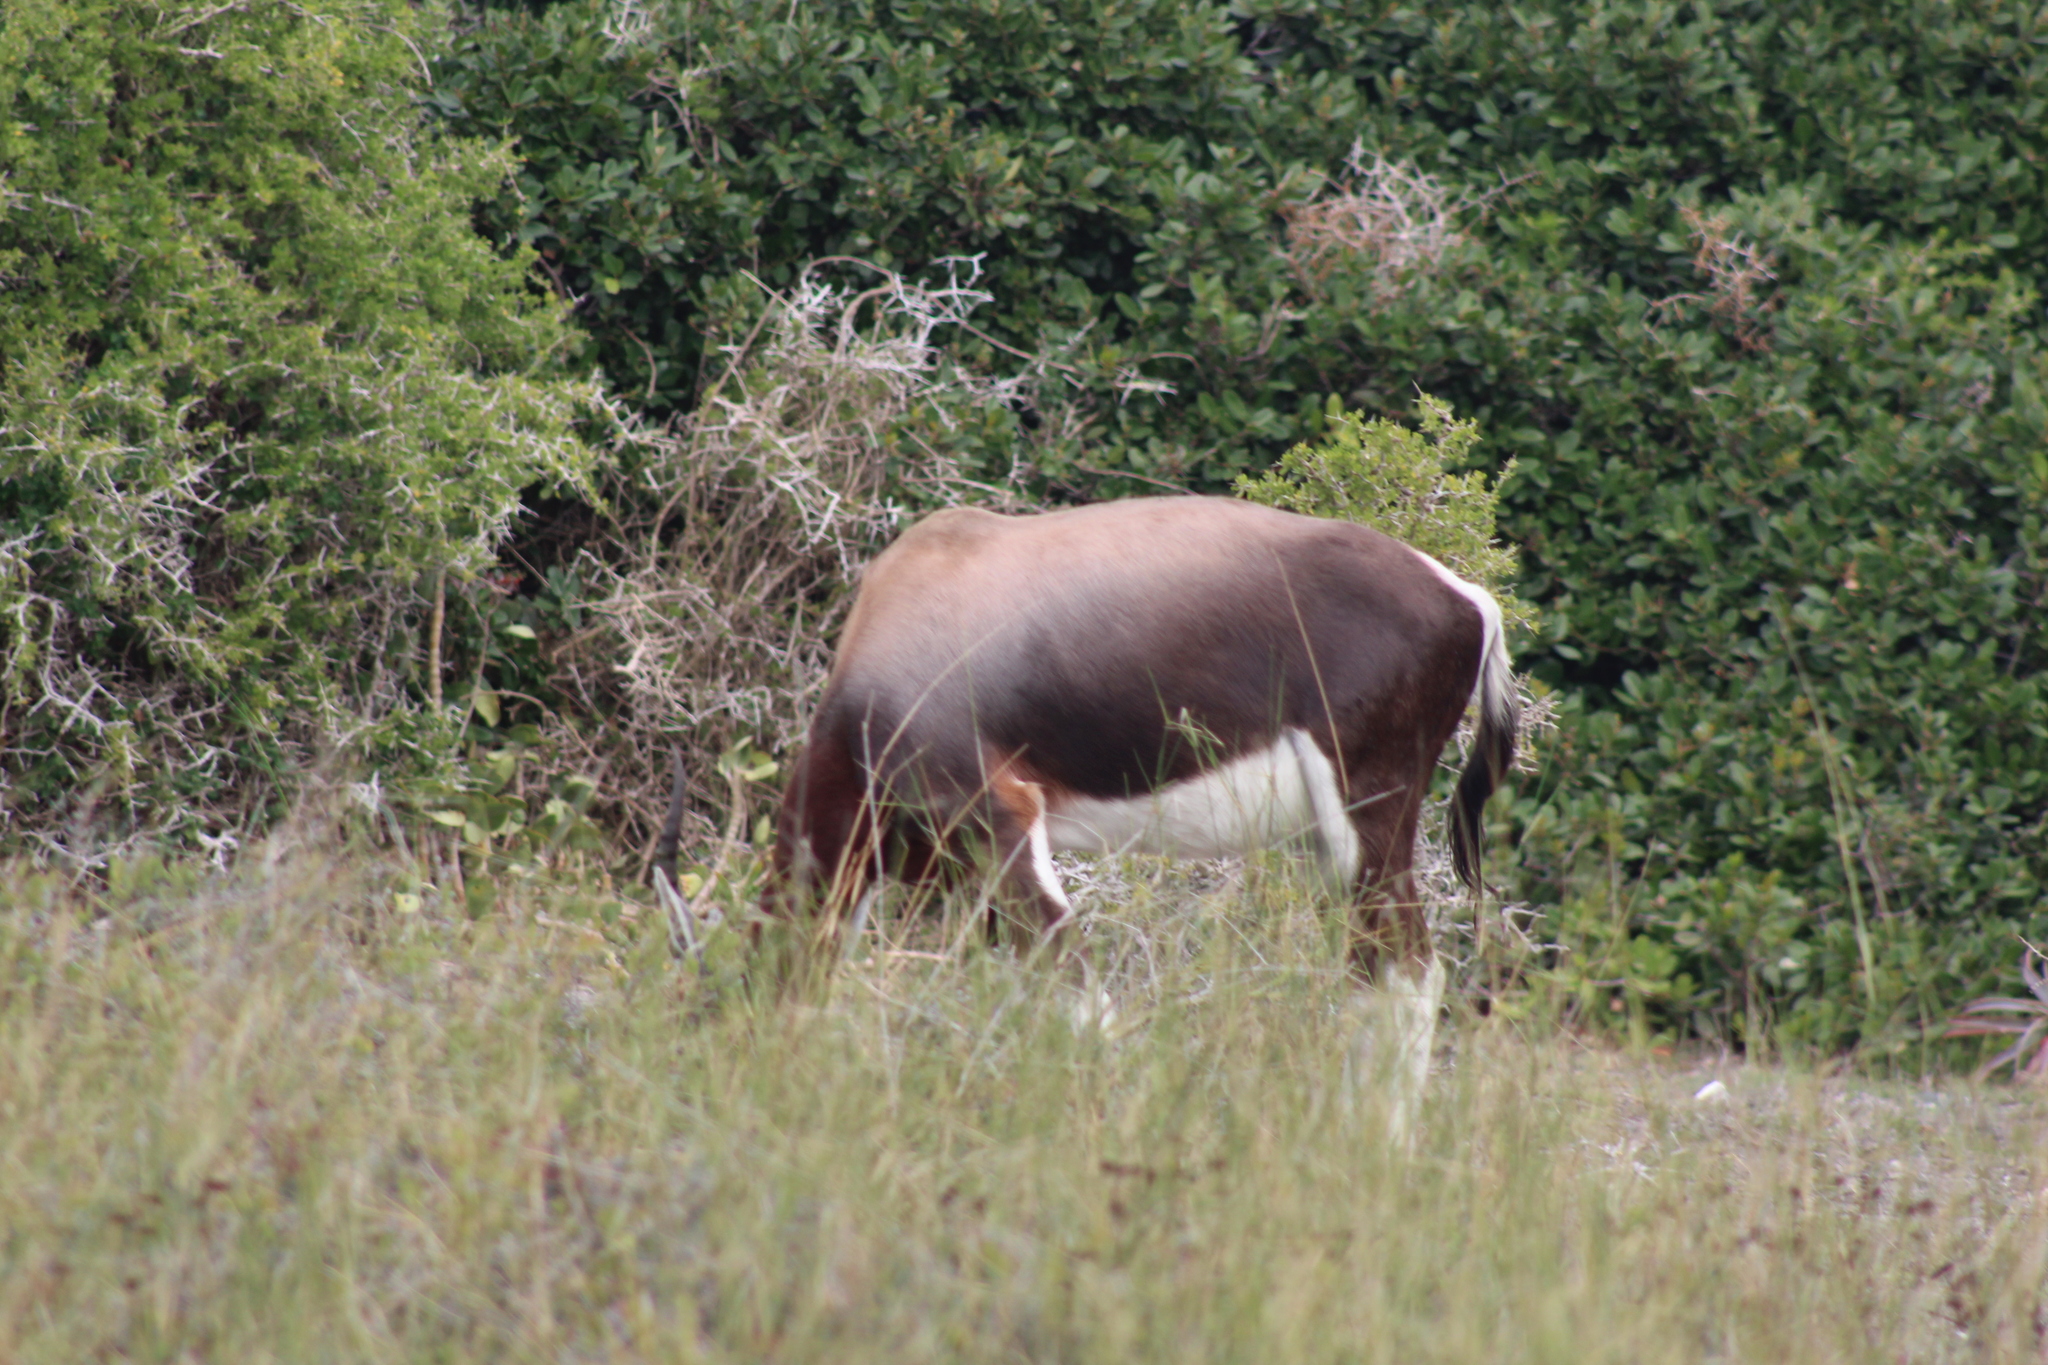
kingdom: Animalia
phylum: Chordata
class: Mammalia
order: Artiodactyla
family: Bovidae
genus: Damaliscus
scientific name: Damaliscus pygargus
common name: Bontebok
